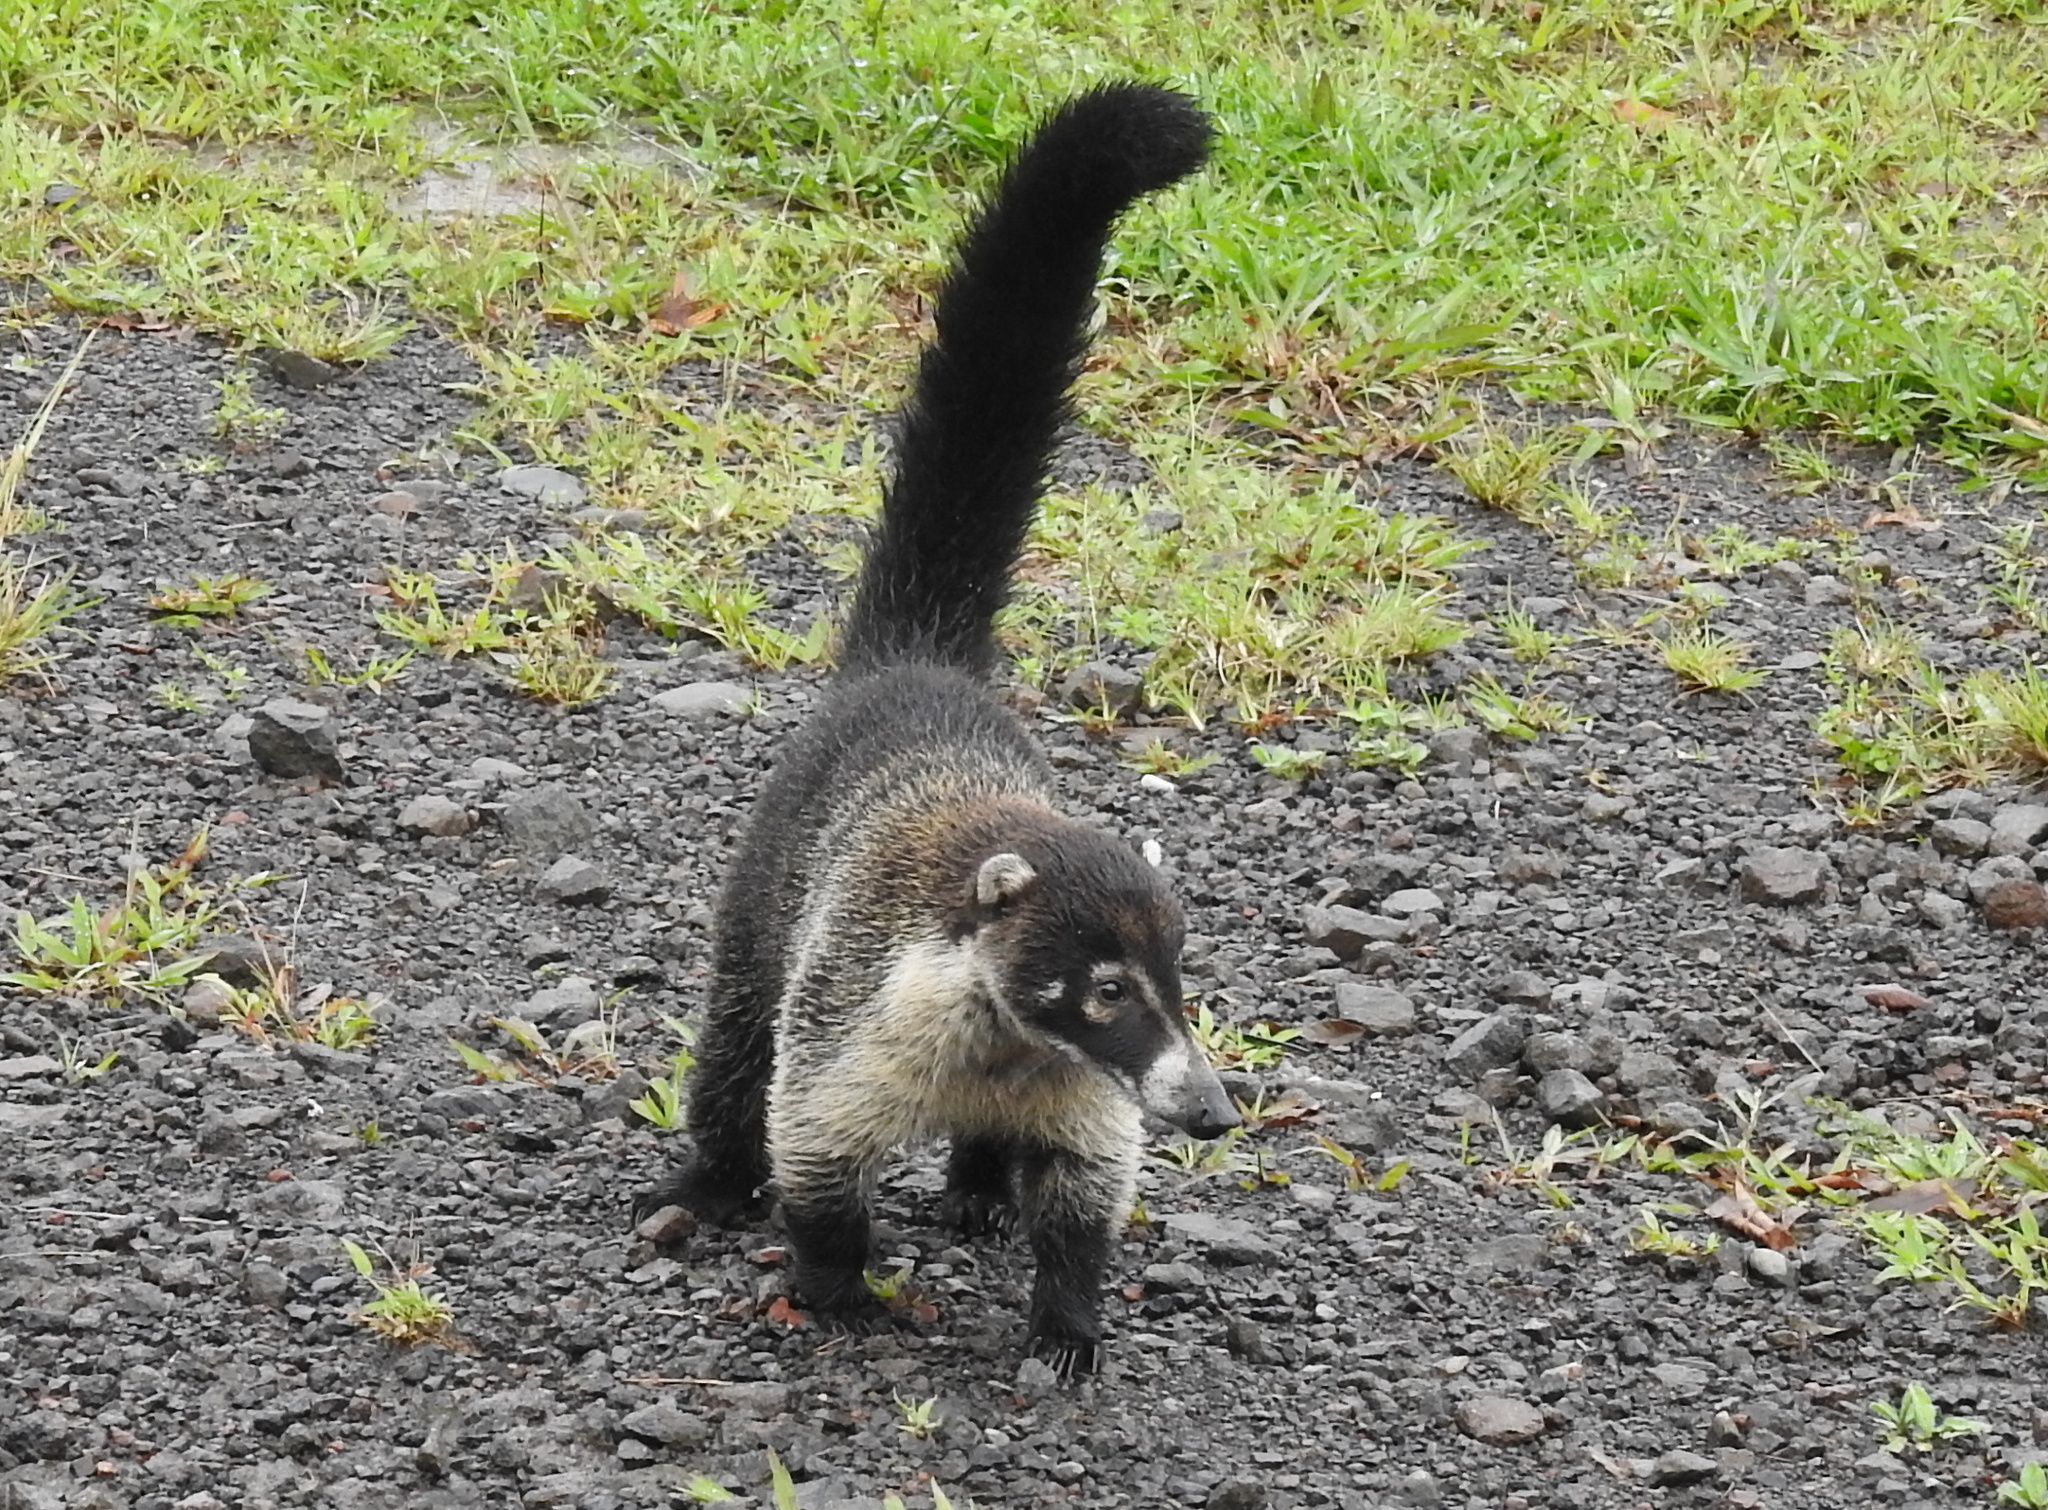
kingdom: Animalia
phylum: Chordata
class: Mammalia
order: Carnivora
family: Procyonidae
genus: Nasua
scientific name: Nasua narica
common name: White-nosed coati
